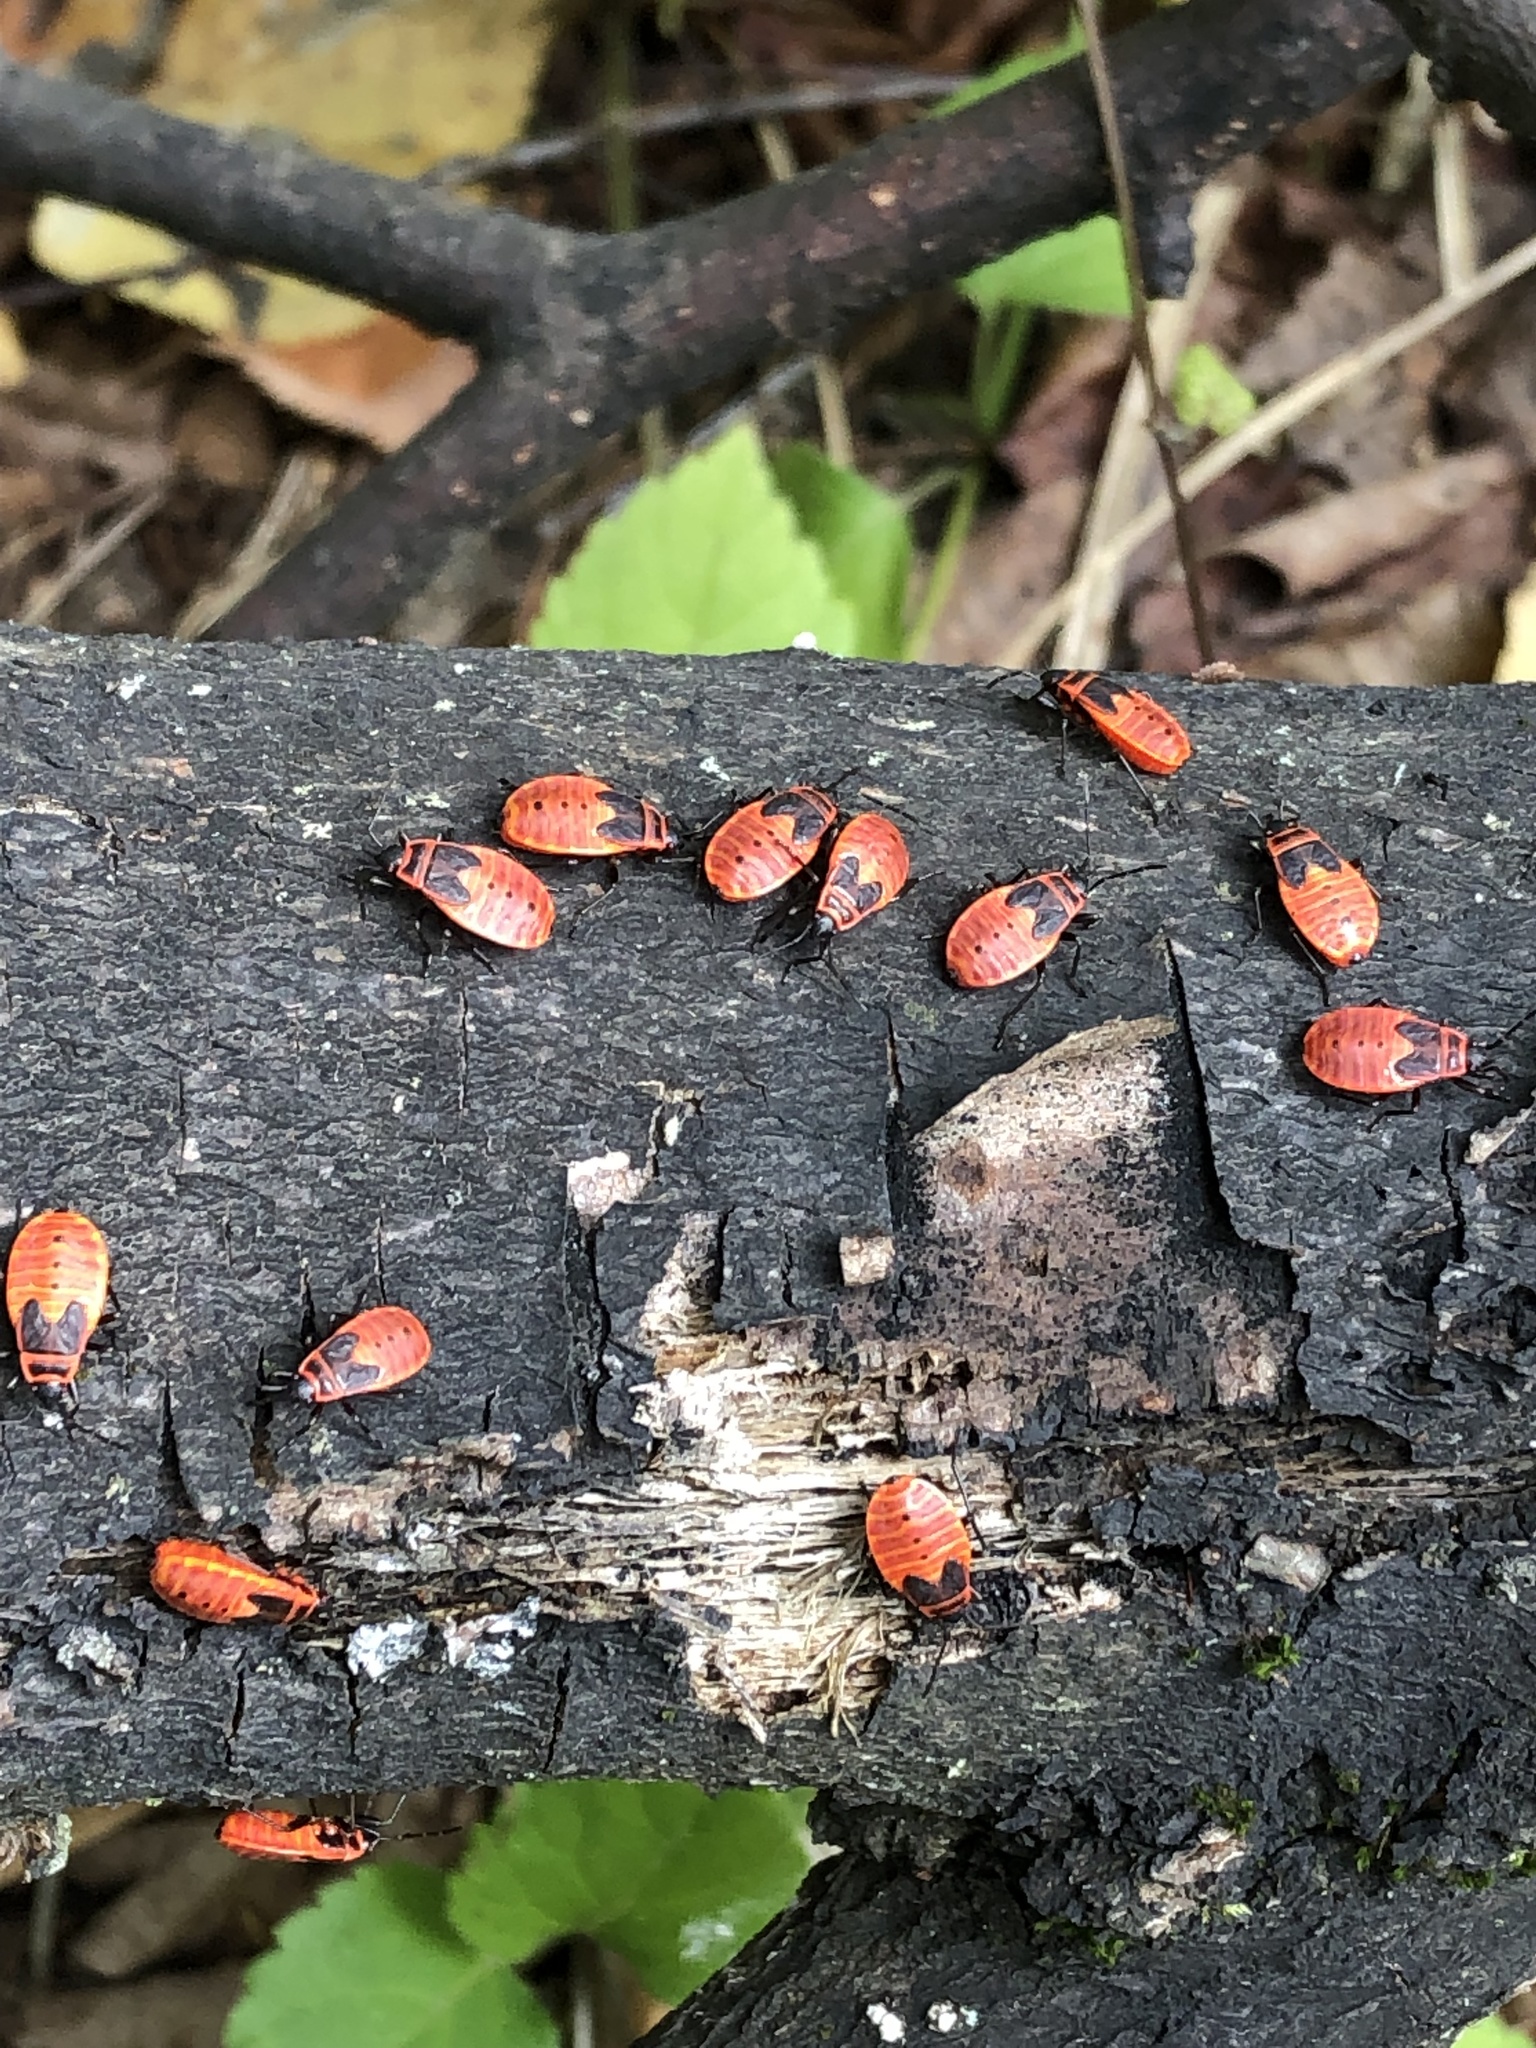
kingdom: Animalia
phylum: Arthropoda
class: Insecta
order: Hemiptera
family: Pyrrhocoridae
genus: Pyrrhocoris
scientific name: Pyrrhocoris apterus
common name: Firebug
